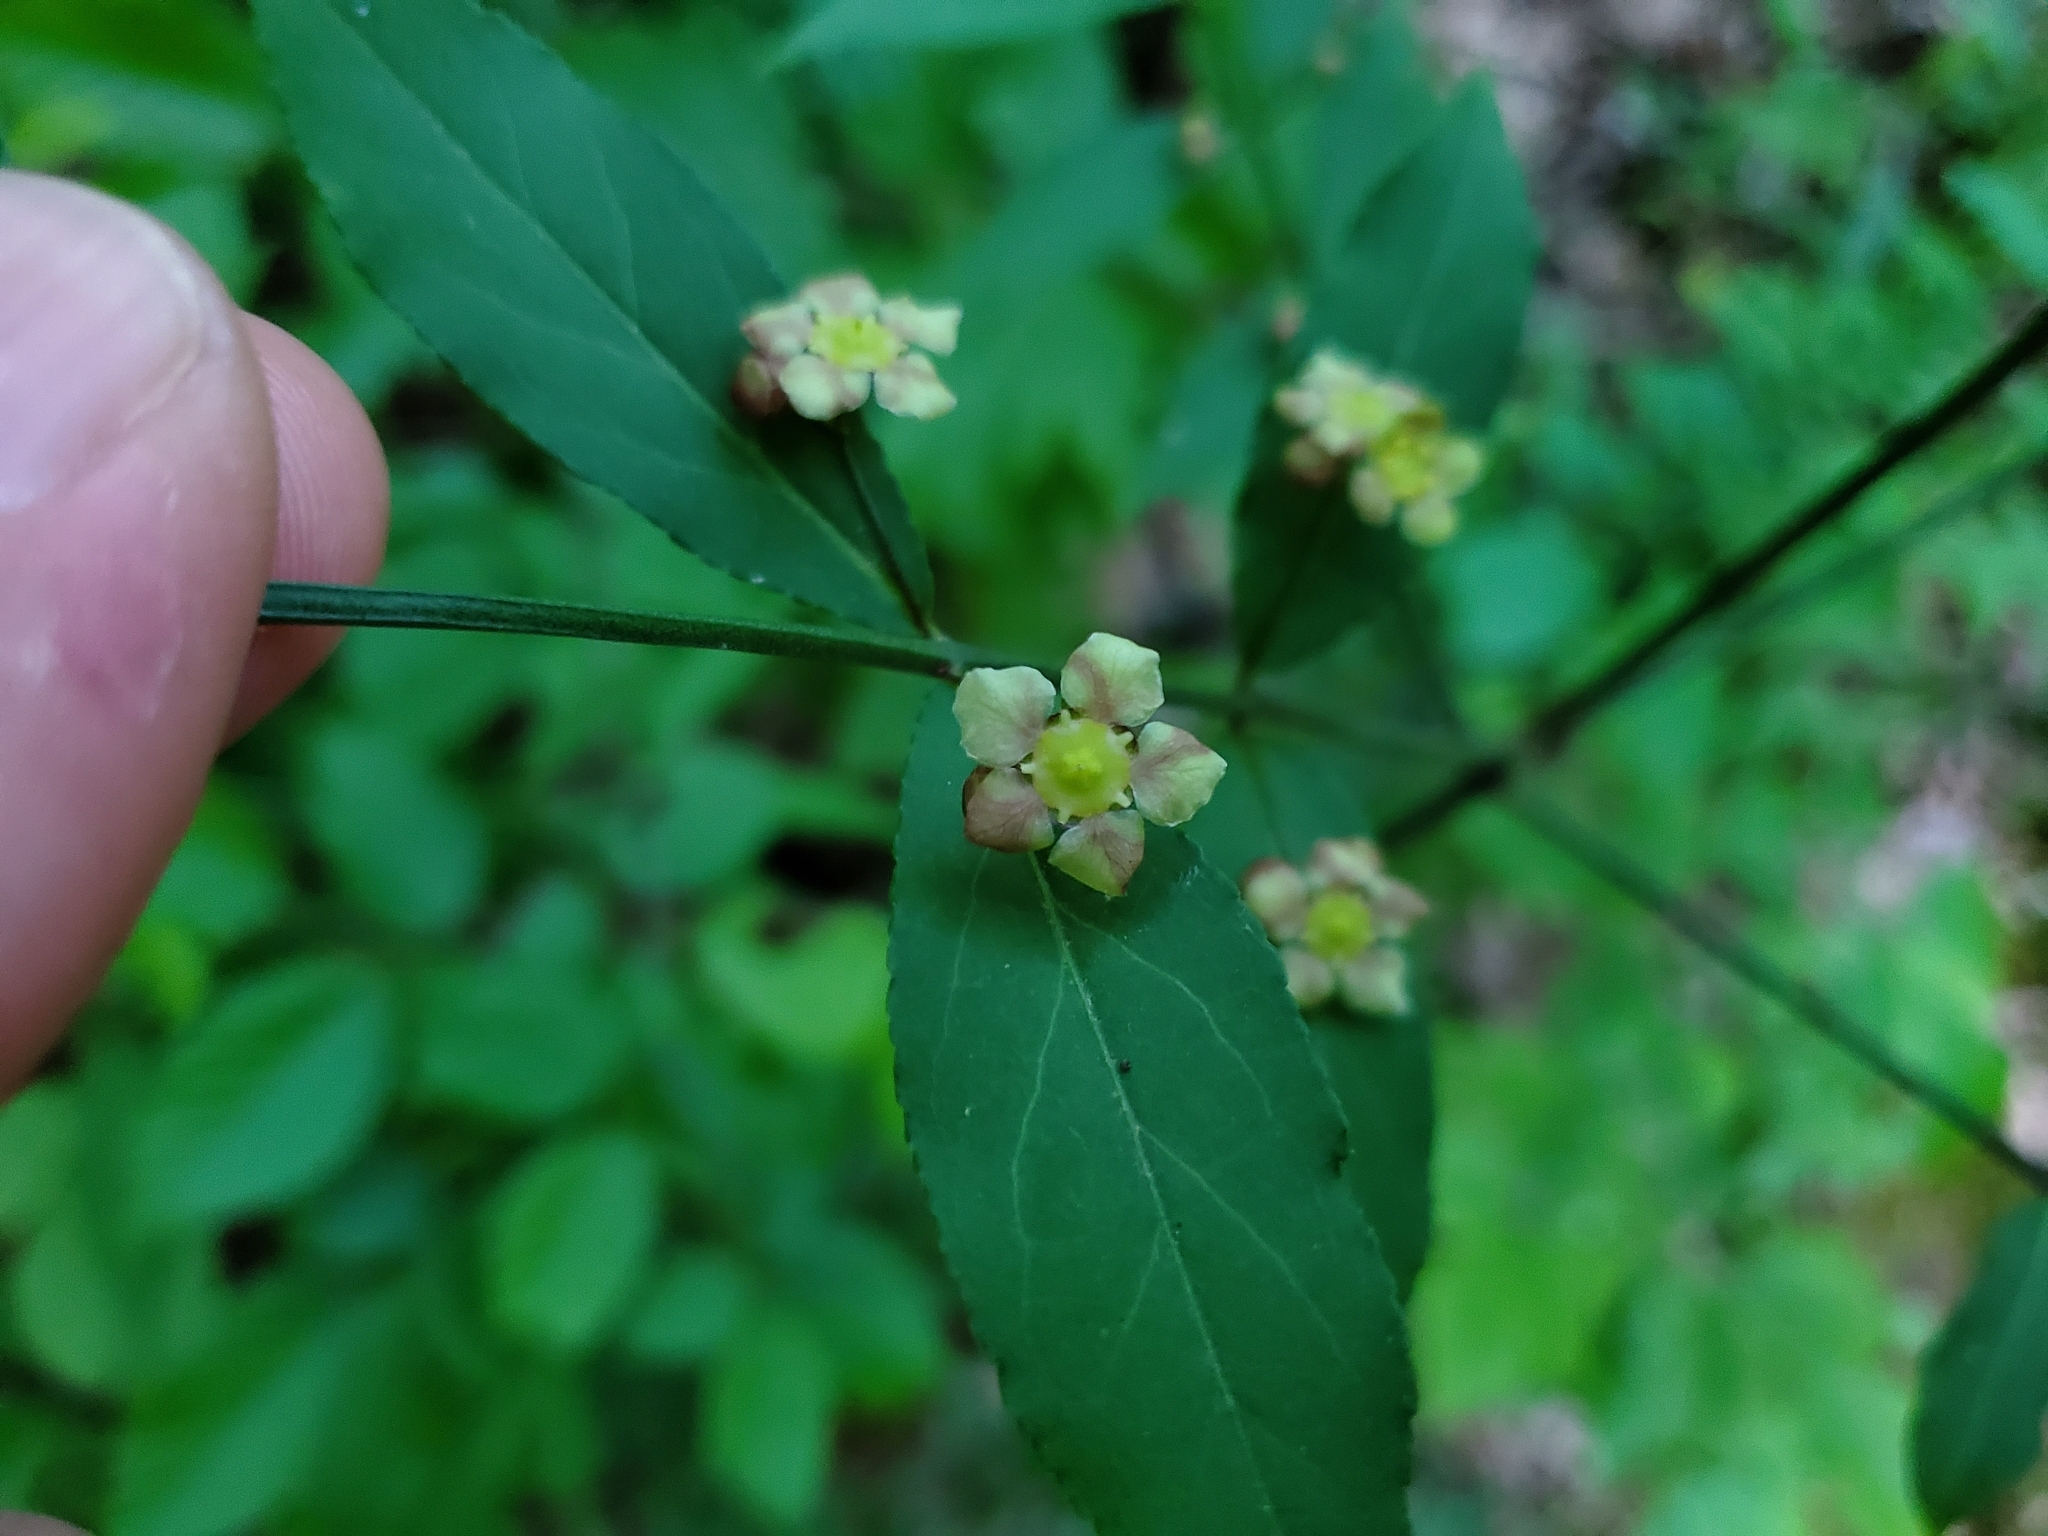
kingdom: Plantae
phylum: Tracheophyta
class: Magnoliopsida
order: Celastrales
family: Celastraceae
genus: Euonymus
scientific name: Euonymus americanus
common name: Bursting-heart
